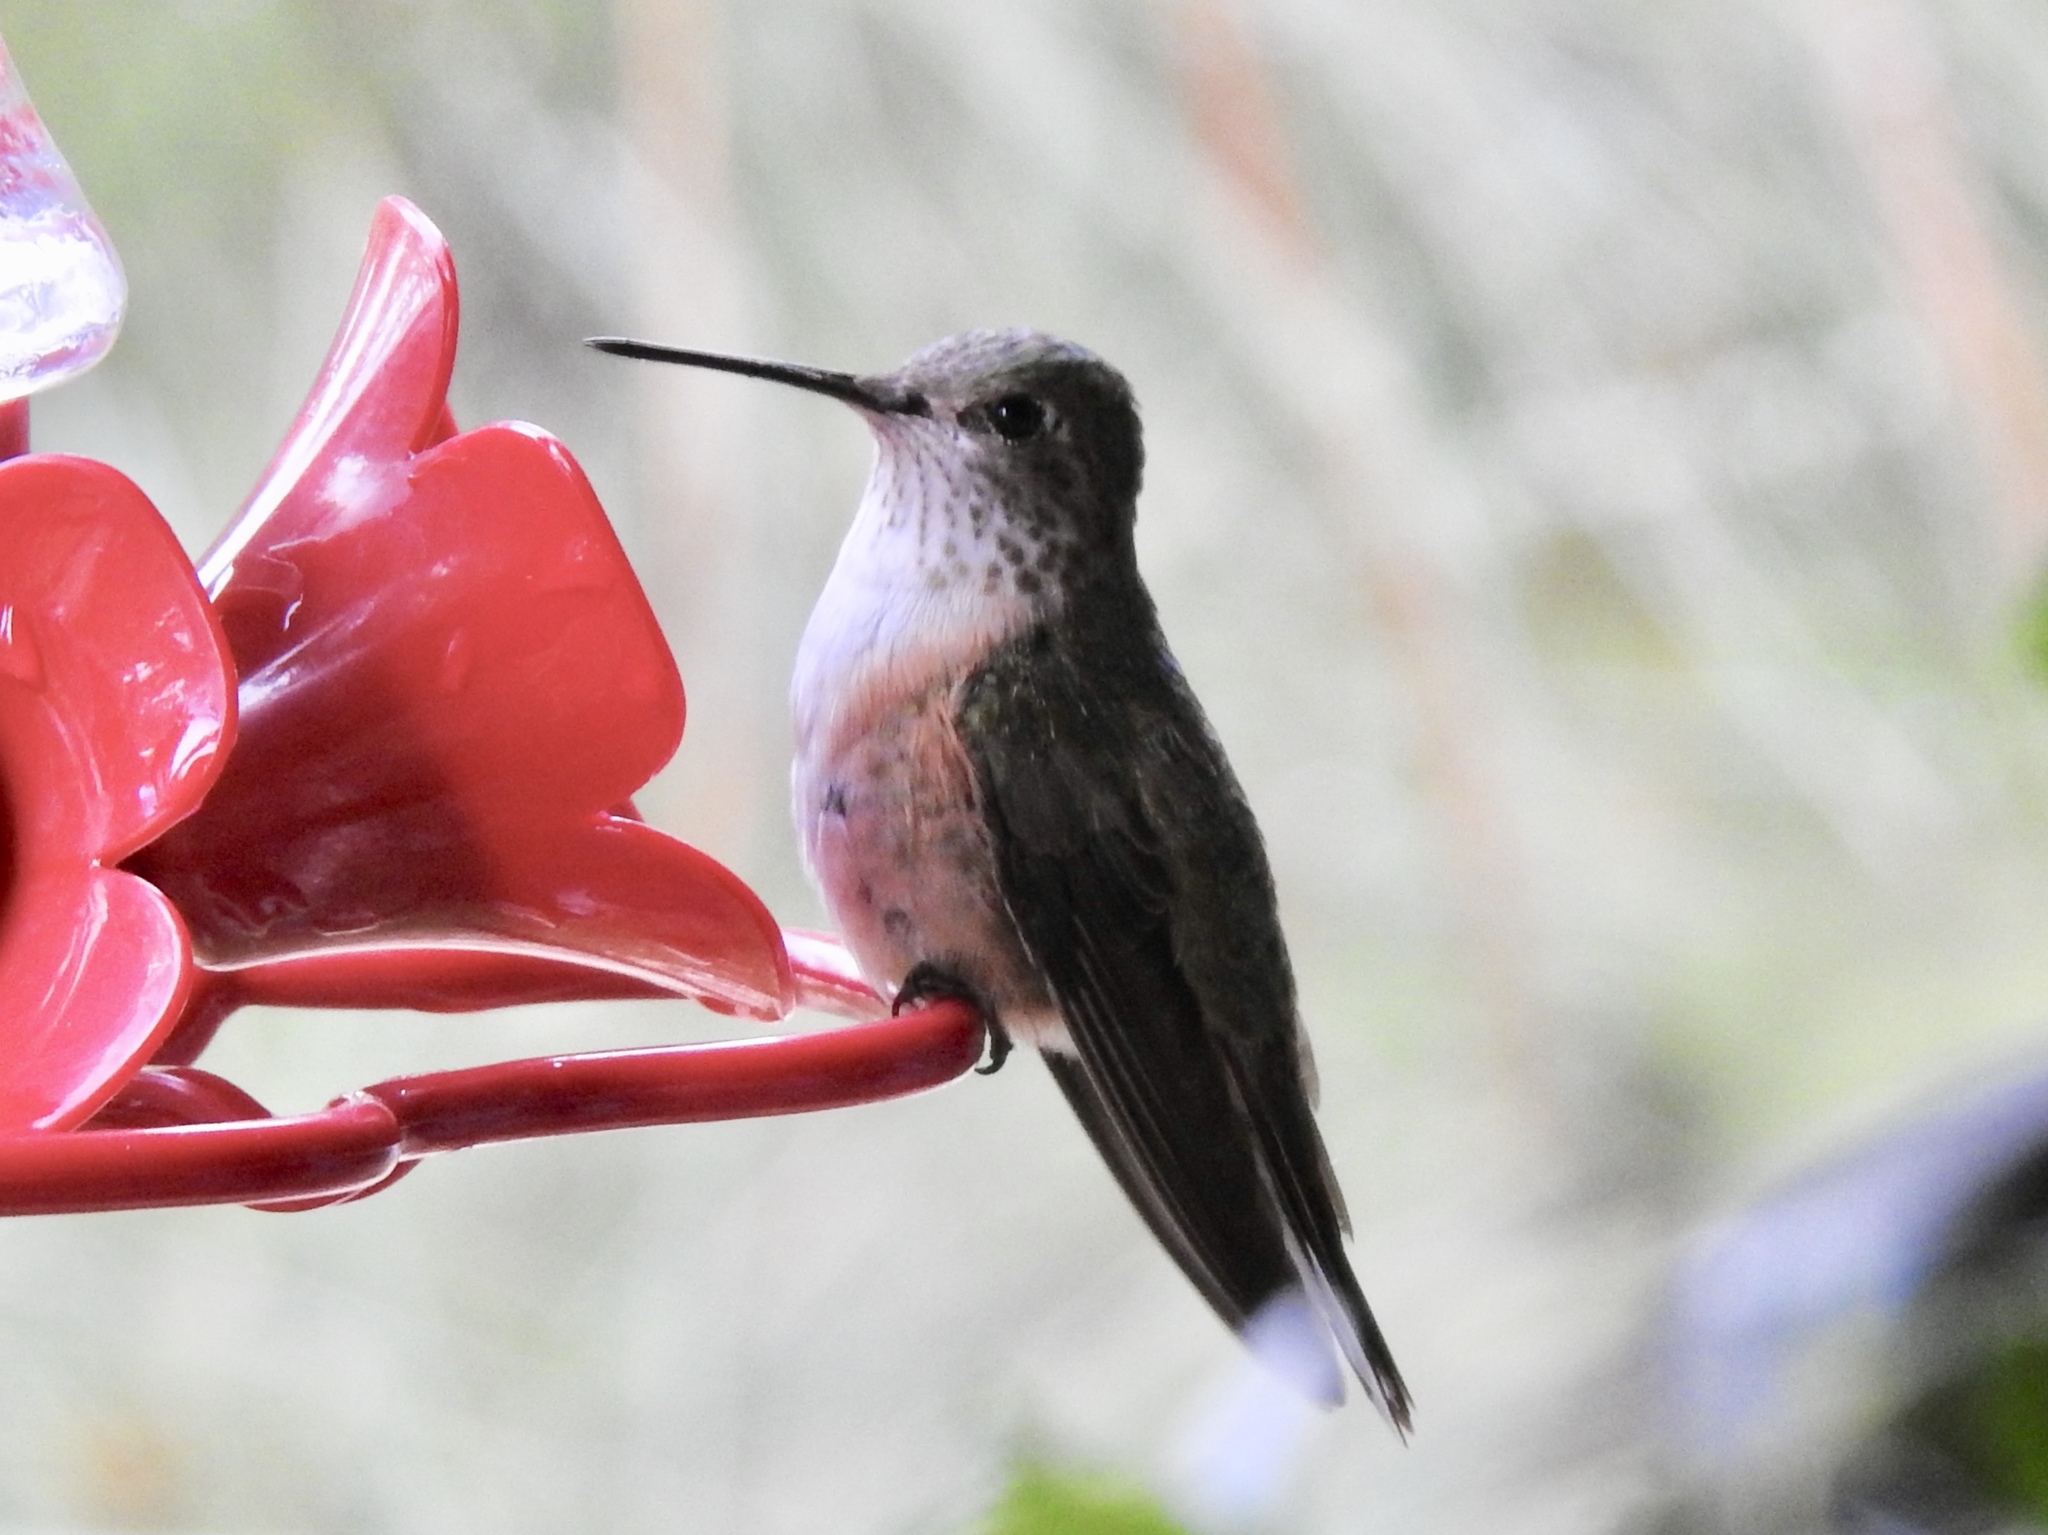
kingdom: Animalia
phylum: Chordata
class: Aves
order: Apodiformes
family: Trochilidae
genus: Selasphorus
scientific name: Selasphorus platycercus
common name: Broad-tailed hummingbird
